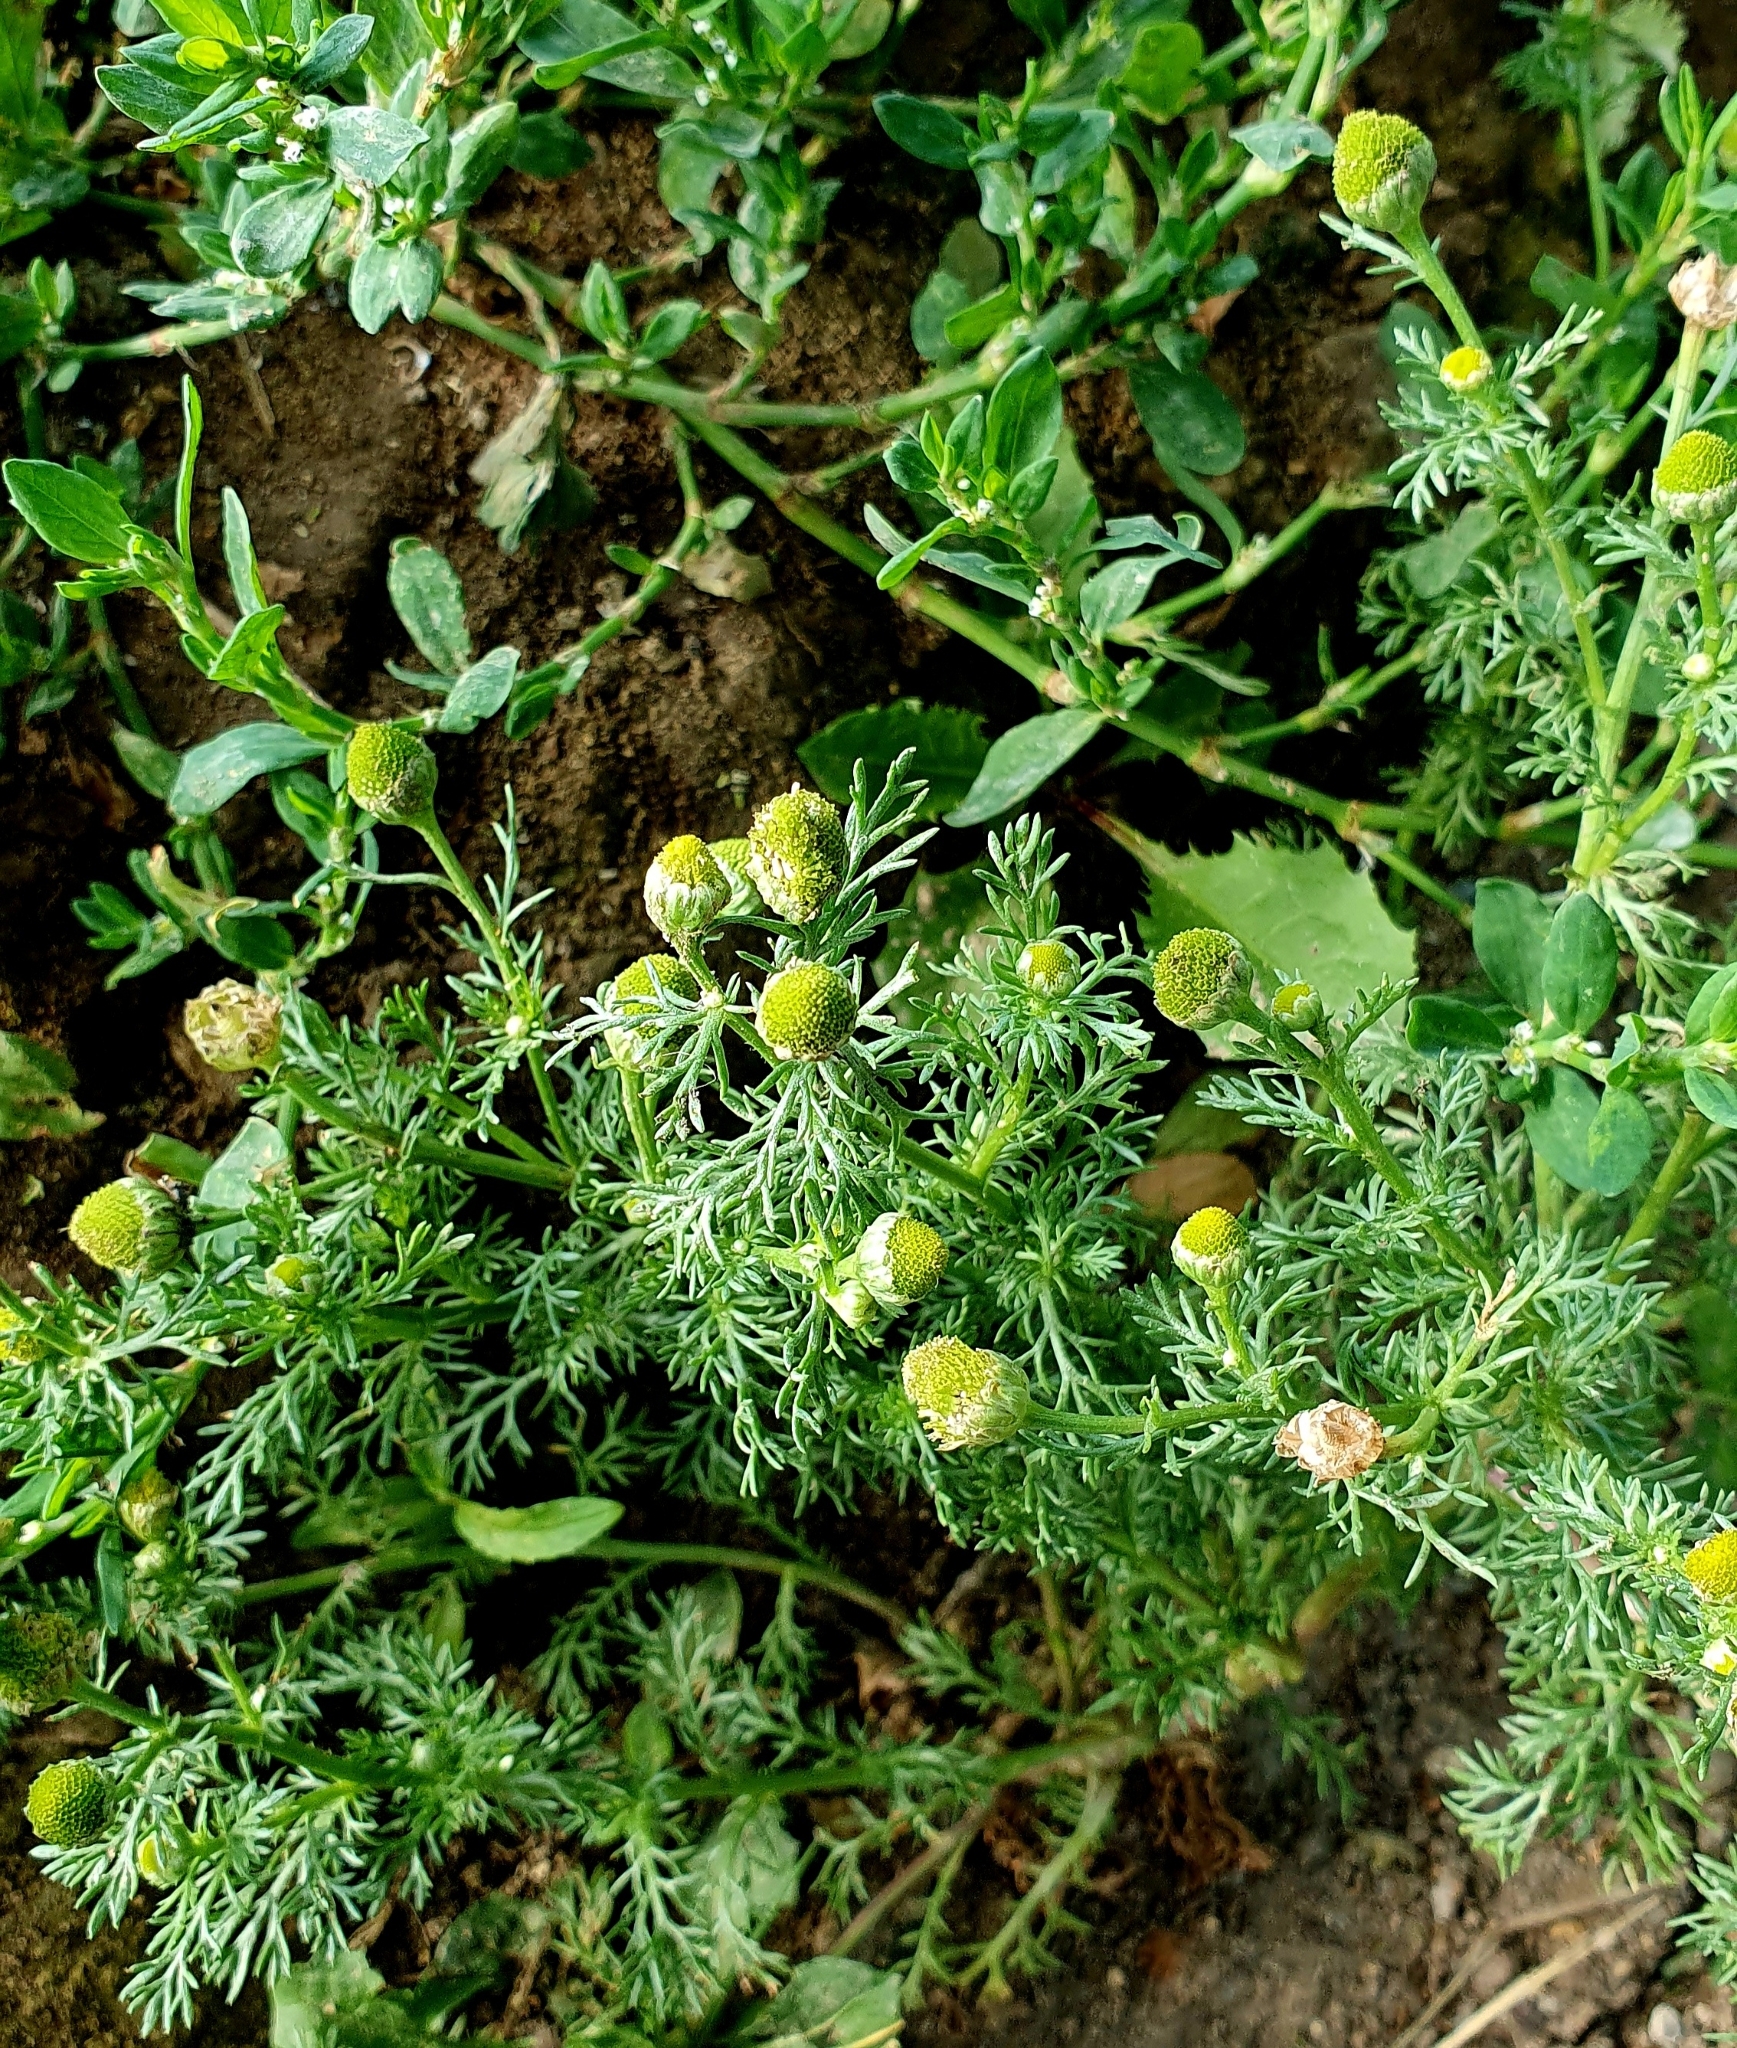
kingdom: Plantae
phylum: Tracheophyta
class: Magnoliopsida
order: Asterales
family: Asteraceae
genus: Matricaria
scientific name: Matricaria discoidea
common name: Disc mayweed
